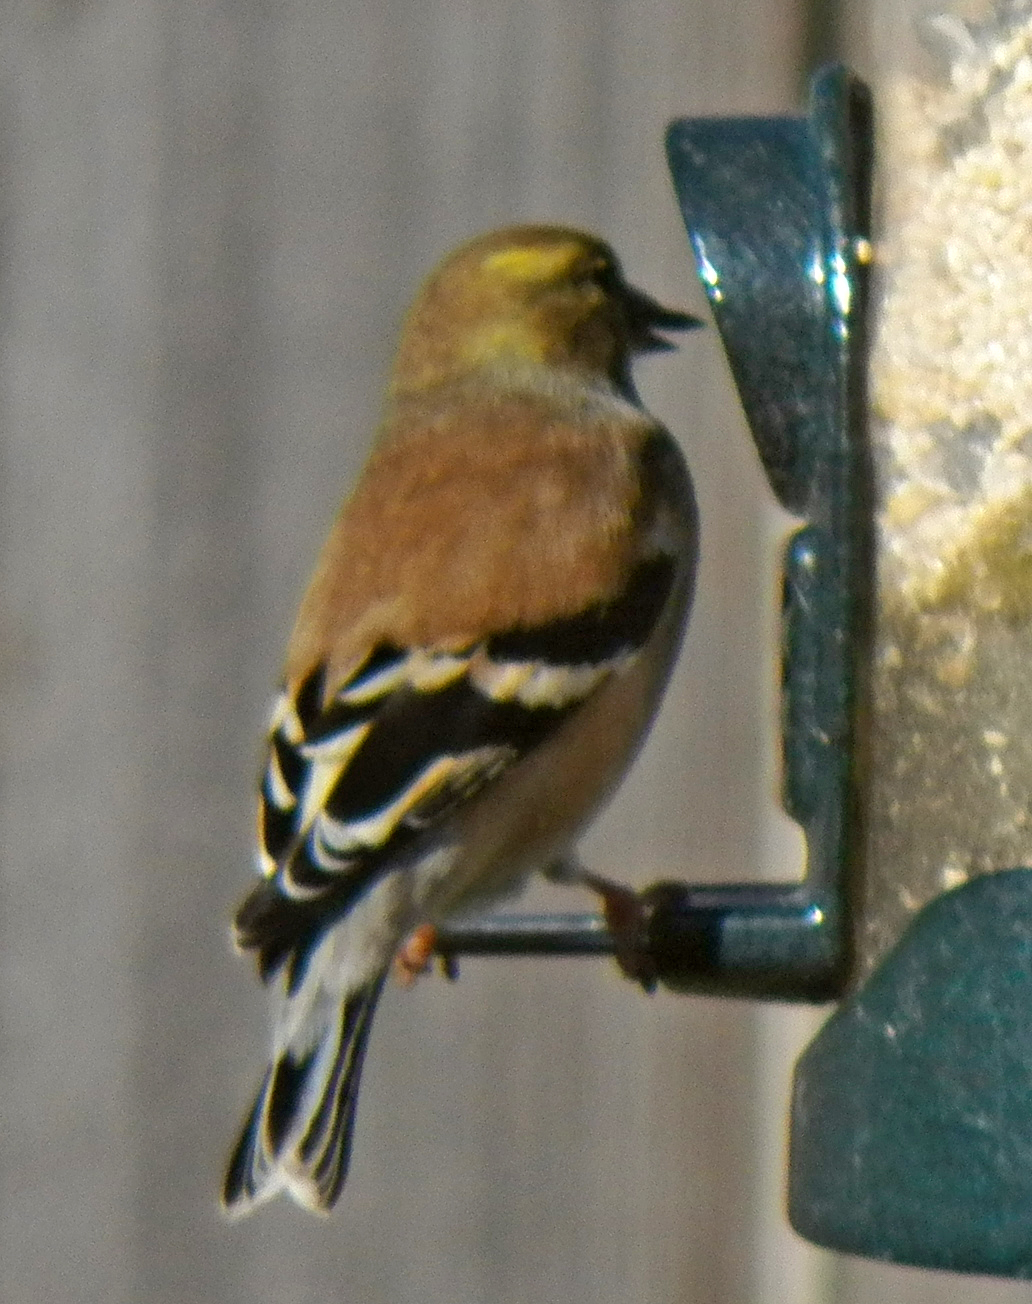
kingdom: Animalia
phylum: Chordata
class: Aves
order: Passeriformes
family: Fringillidae
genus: Spinus
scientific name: Spinus tristis
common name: American goldfinch
